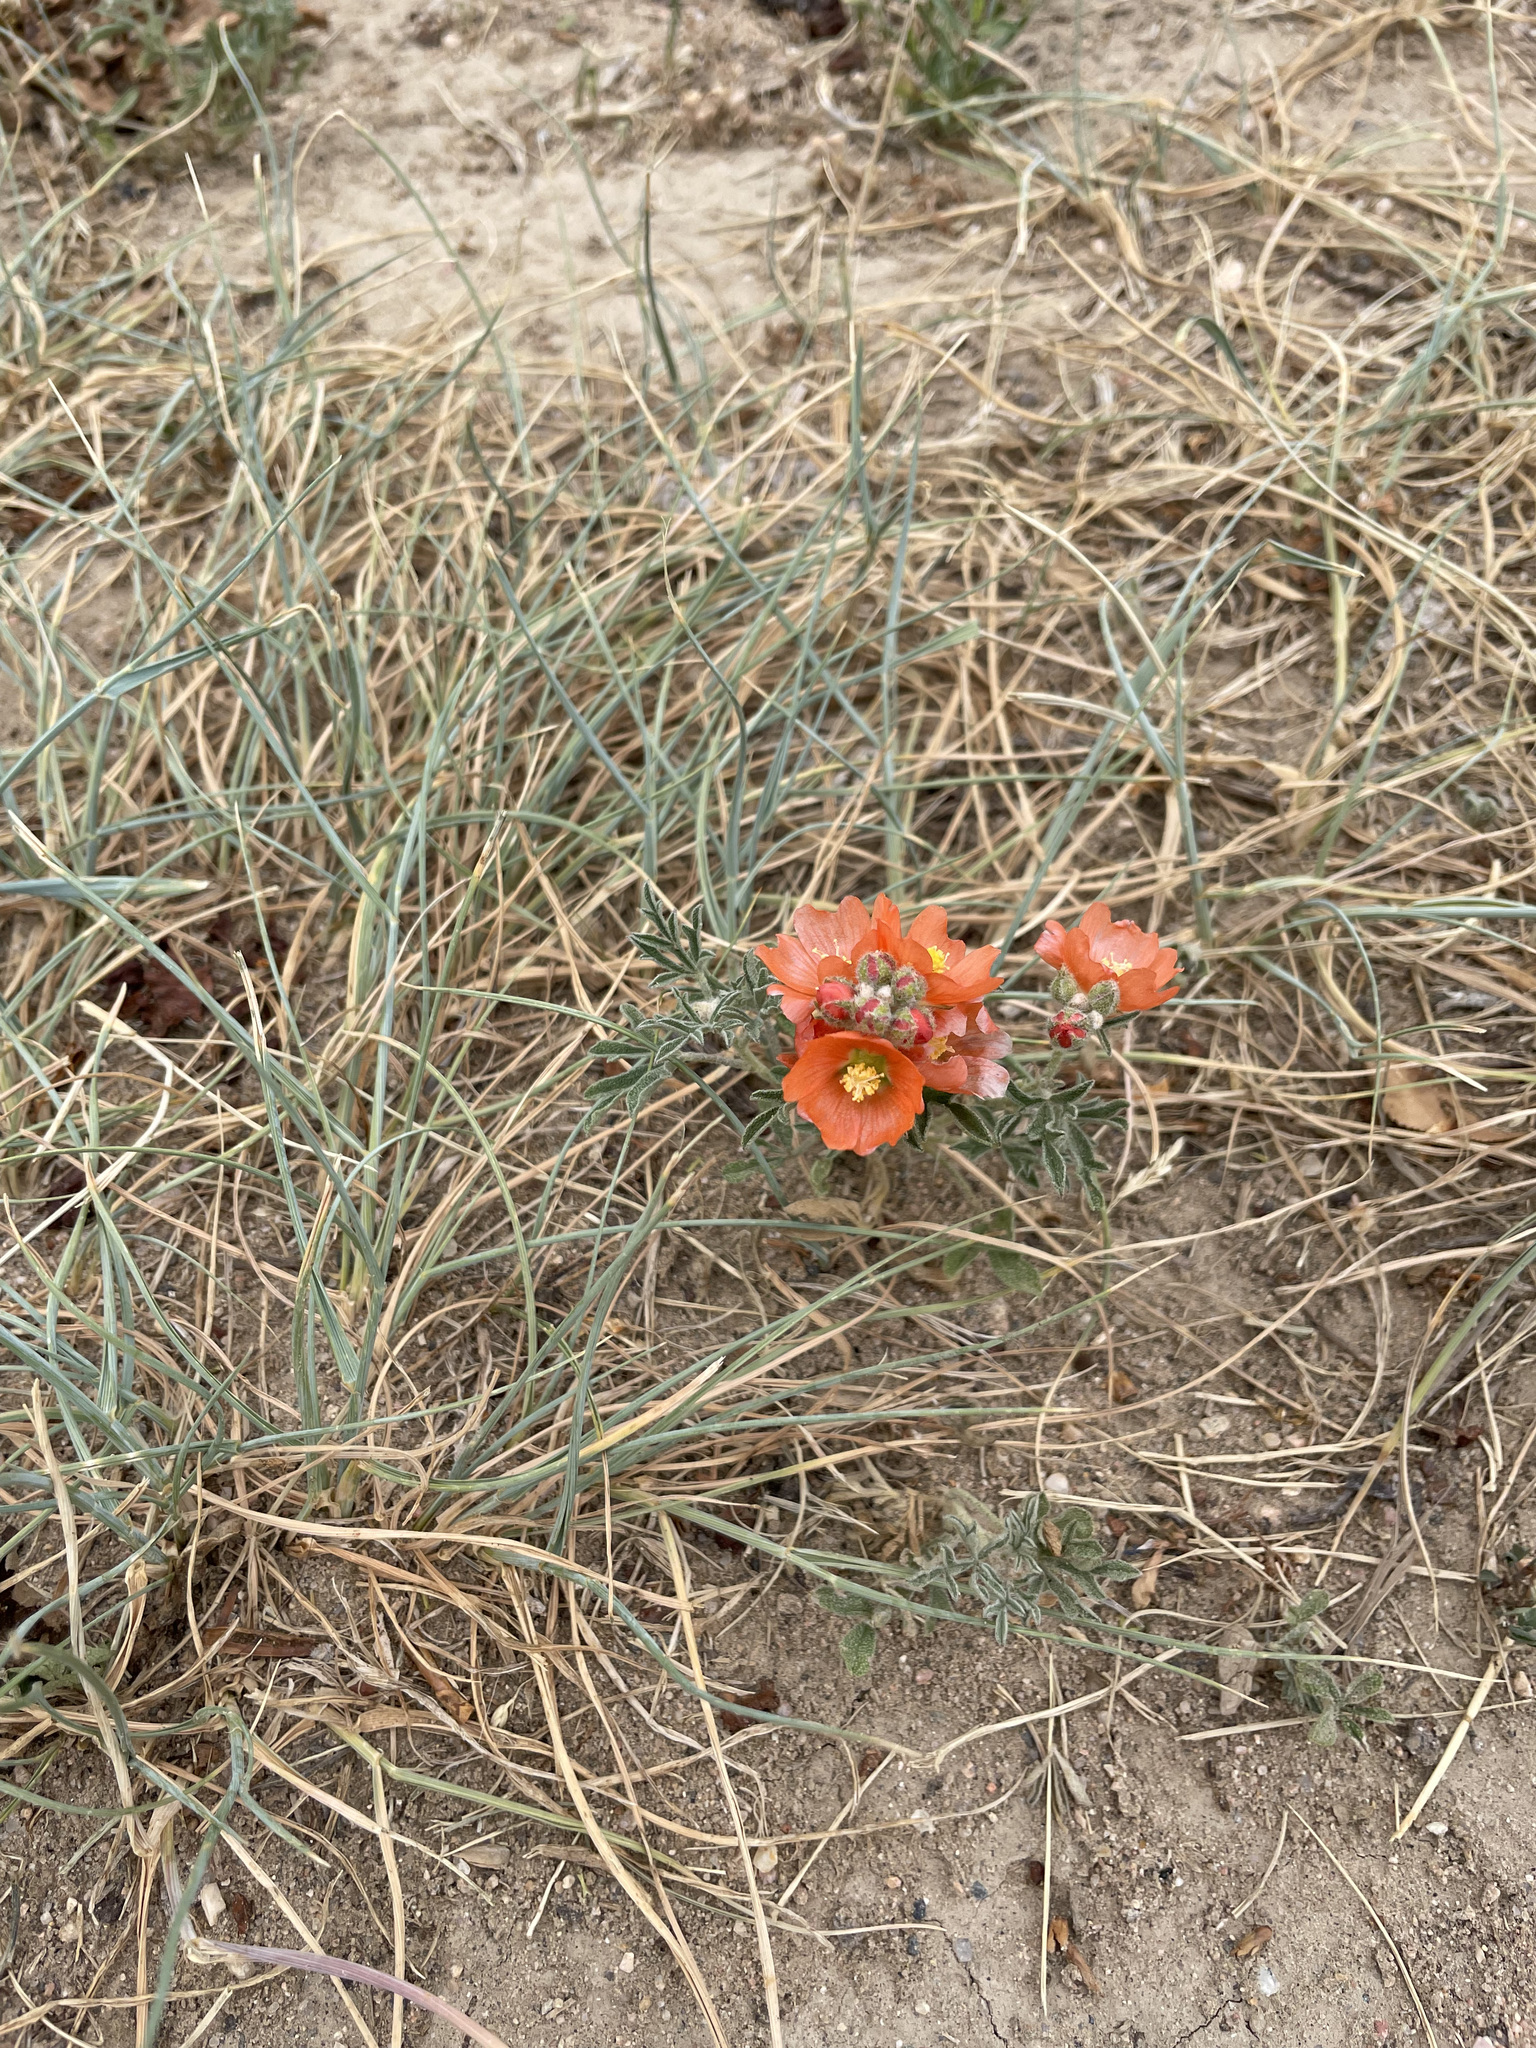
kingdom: Plantae
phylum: Tracheophyta
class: Magnoliopsida
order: Malvales
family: Malvaceae
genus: Sphaeralcea
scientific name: Sphaeralcea coccinea
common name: Moss-rose
